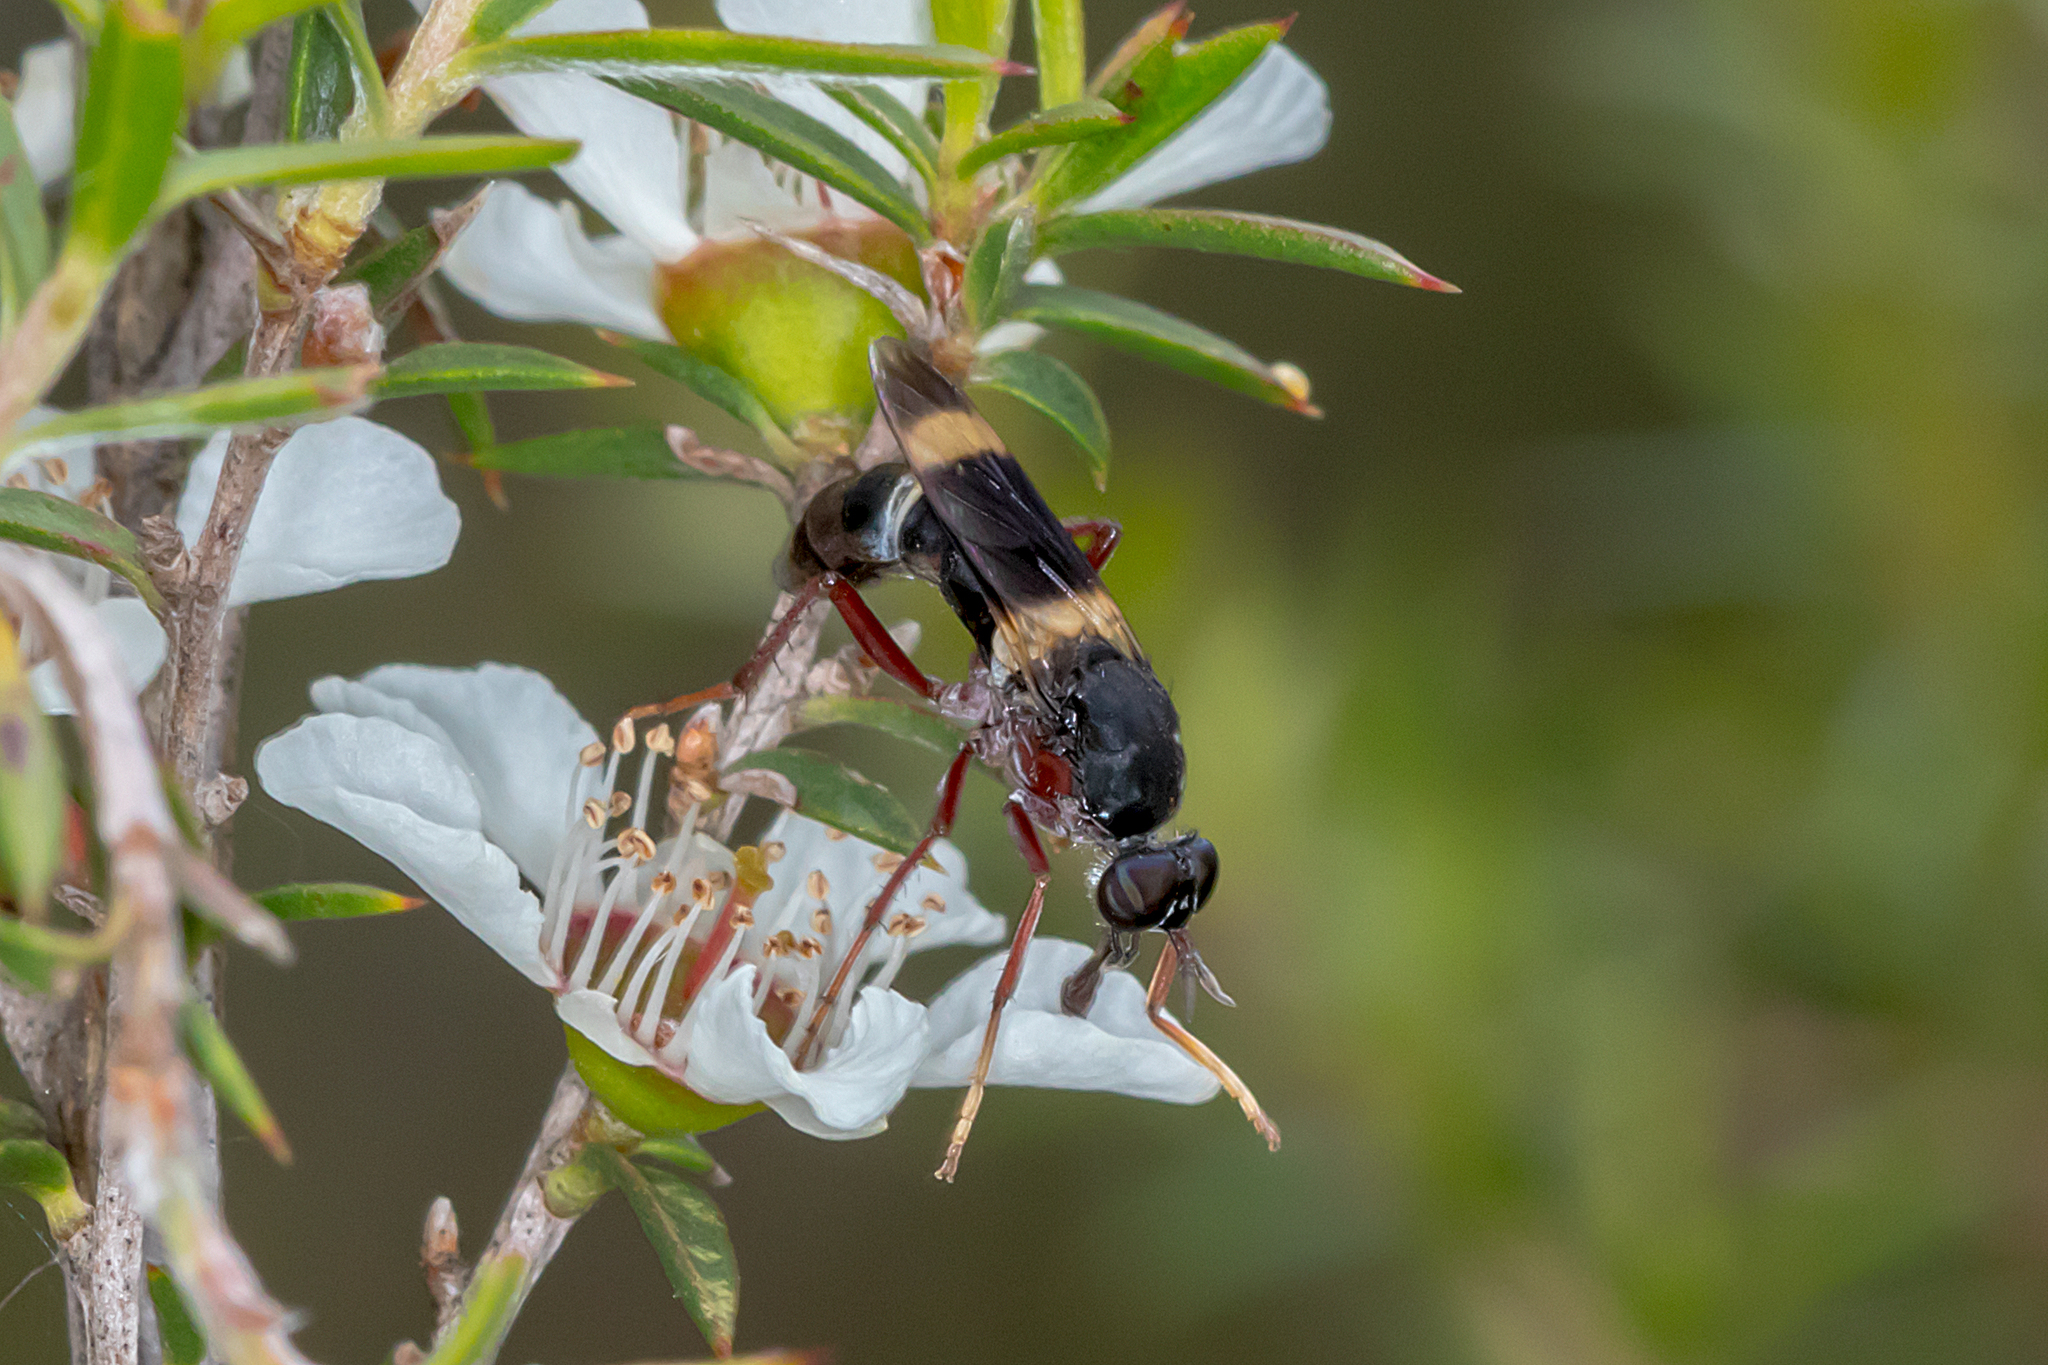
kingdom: Animalia
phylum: Arthropoda
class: Insecta
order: Diptera
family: Therevidae
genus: Pipinnipons
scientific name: Pipinnipons fascipennis
